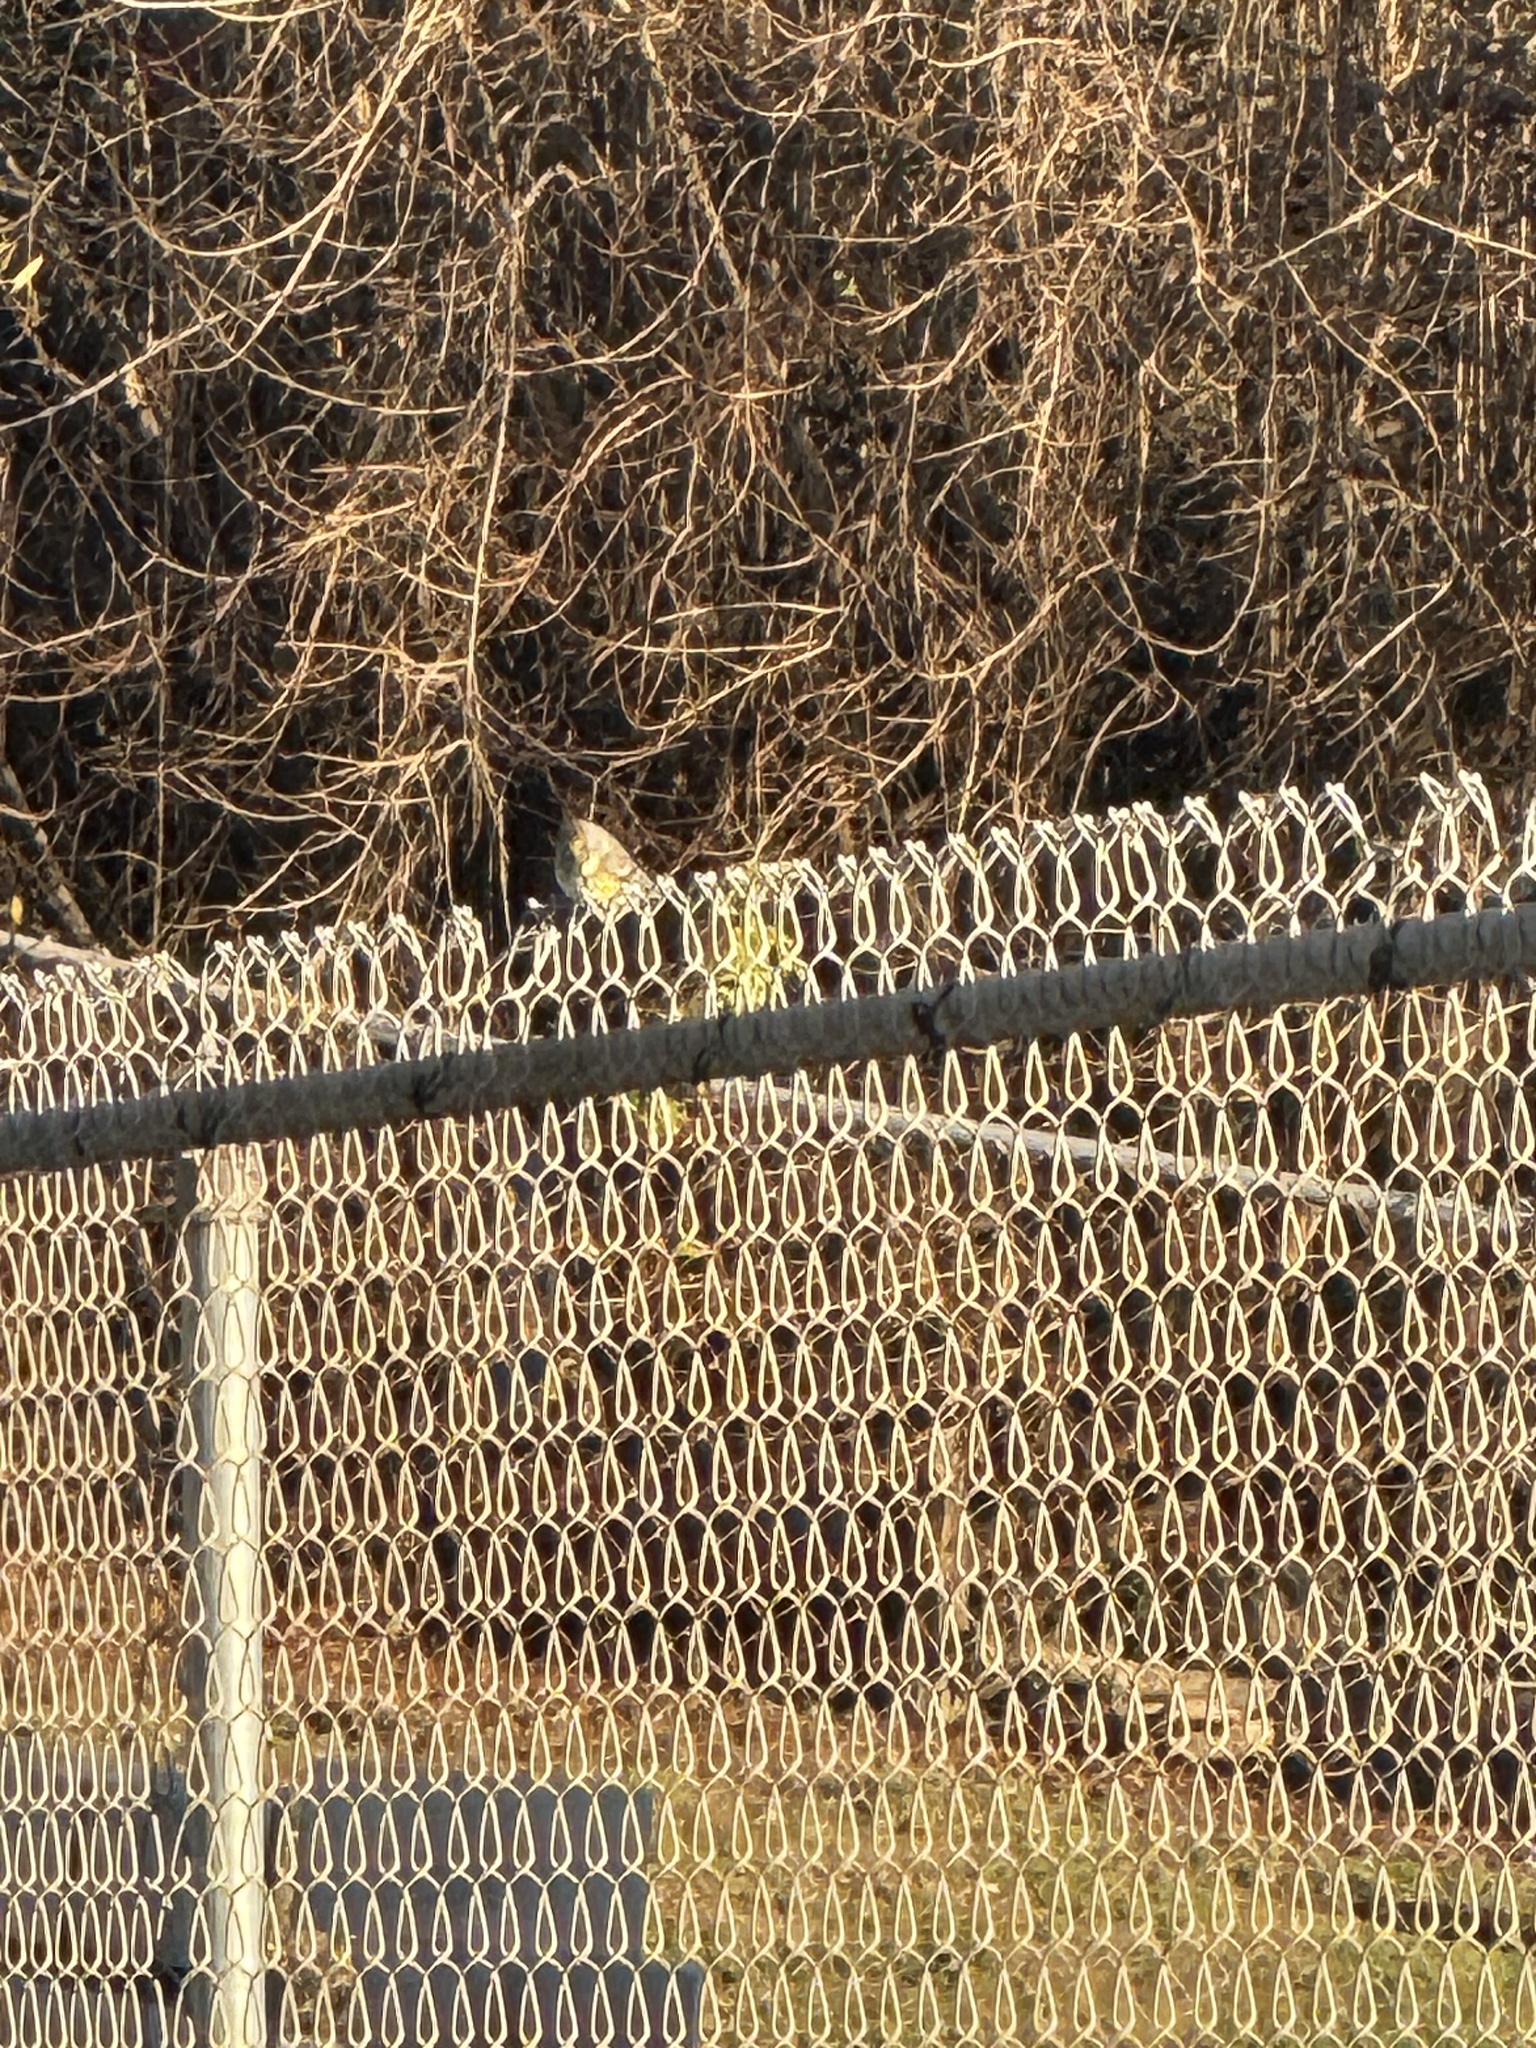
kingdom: Animalia
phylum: Chordata
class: Aves
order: Passeriformes
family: Parulidae
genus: Setophaga
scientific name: Setophaga coronata
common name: Myrtle warbler
